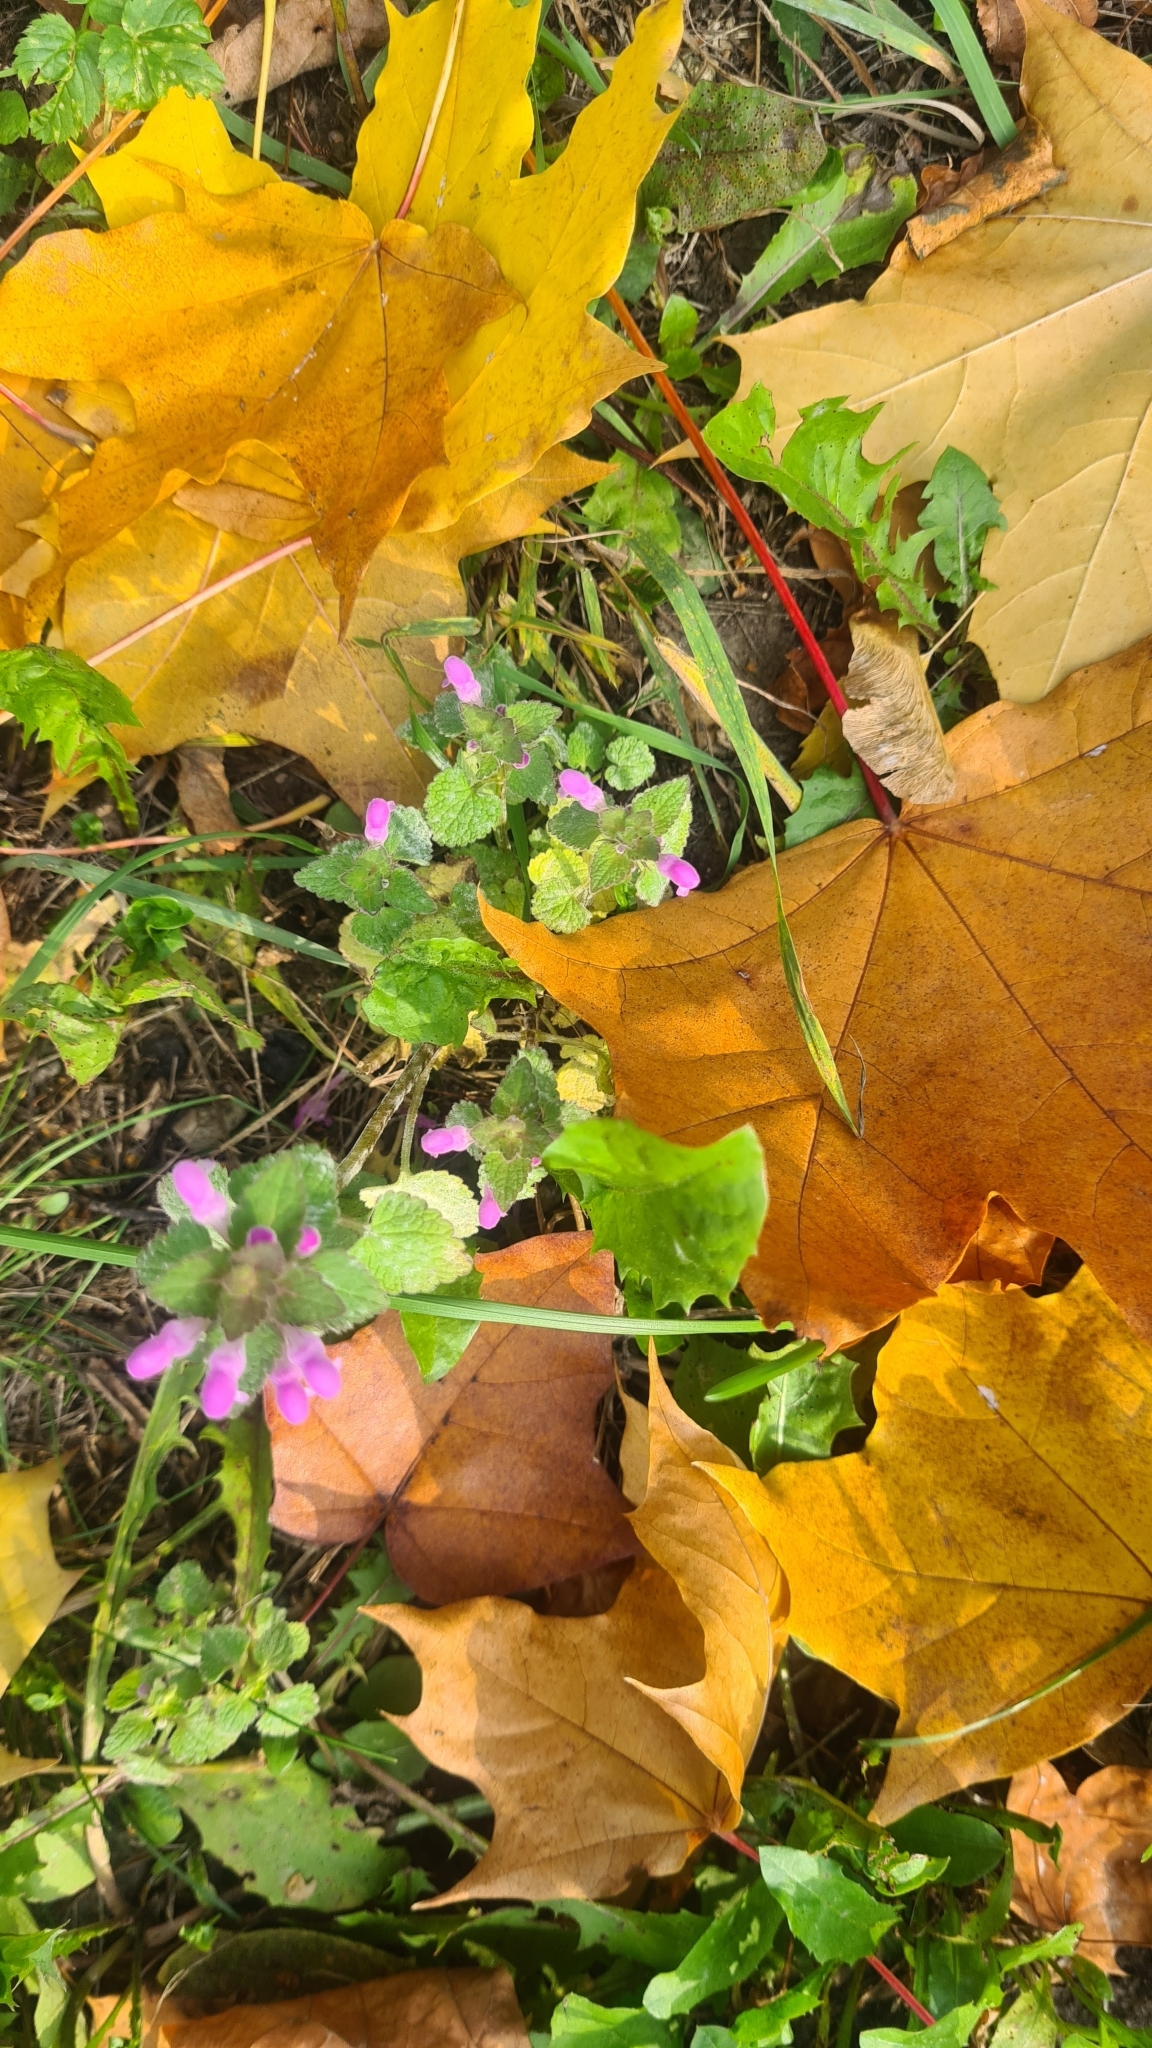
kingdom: Plantae
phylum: Tracheophyta
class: Magnoliopsida
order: Lamiales
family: Lamiaceae
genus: Lamium
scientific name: Lamium purpureum
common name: Red dead-nettle
